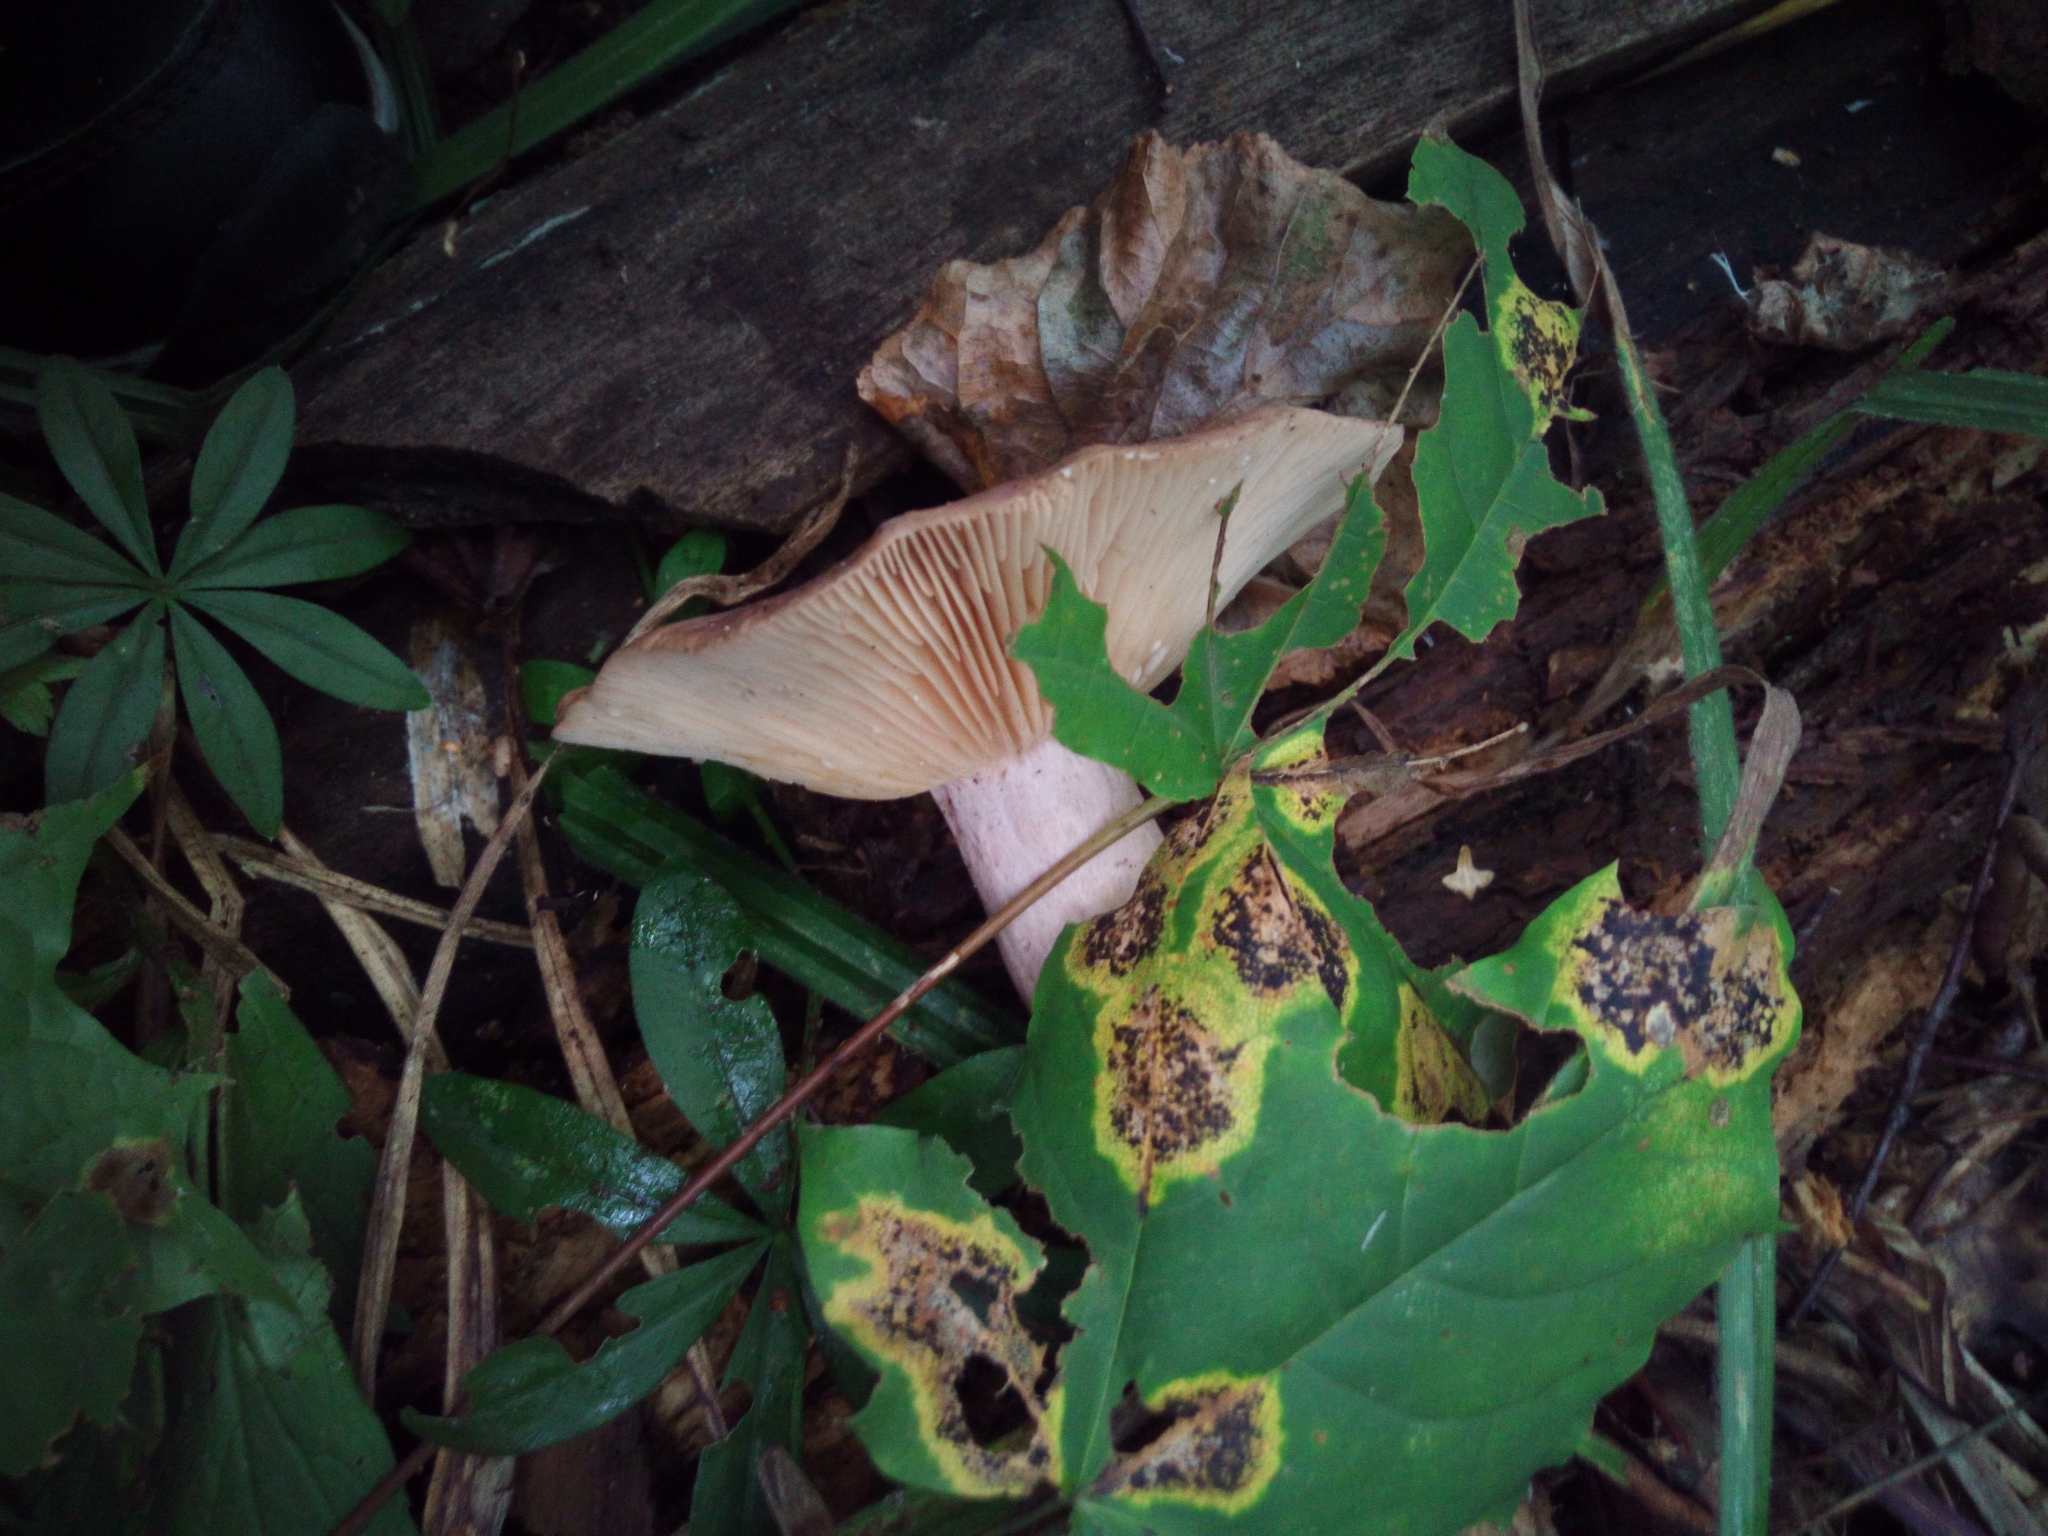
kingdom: Fungi
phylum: Basidiomycota
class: Agaricomycetes
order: Agaricales
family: Omphalotaceae
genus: Collybiopsis
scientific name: Collybiopsis peronata
